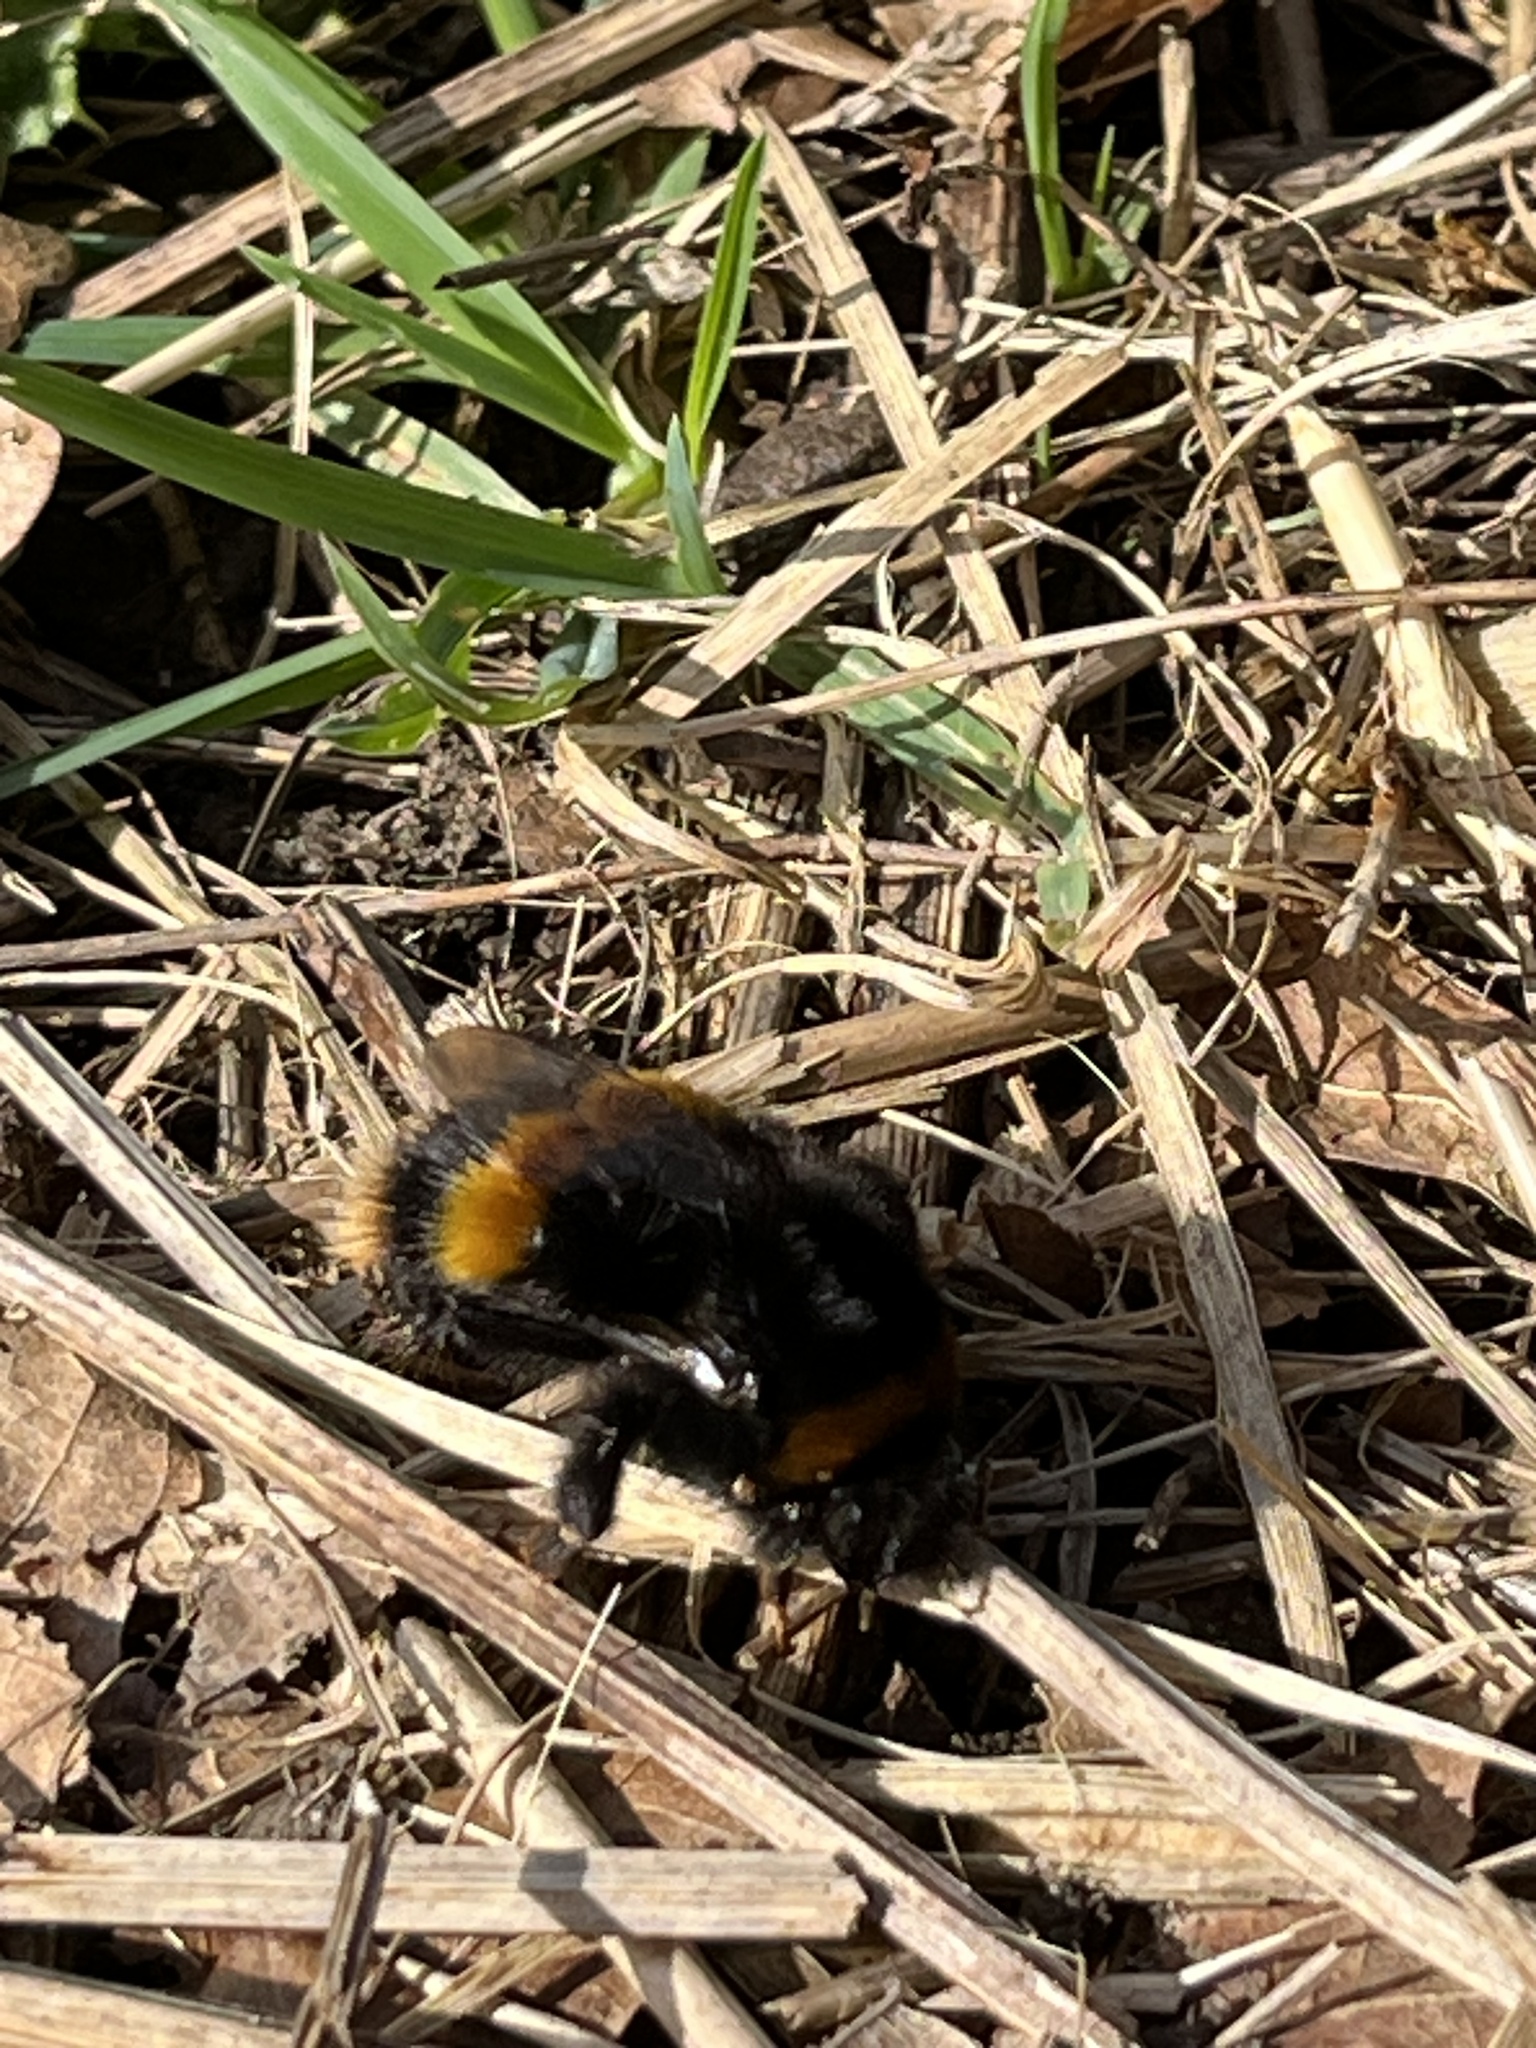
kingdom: Animalia
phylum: Arthropoda
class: Insecta
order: Hymenoptera
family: Apidae
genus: Bombus
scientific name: Bombus terrestris
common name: Buff-tailed bumblebee
